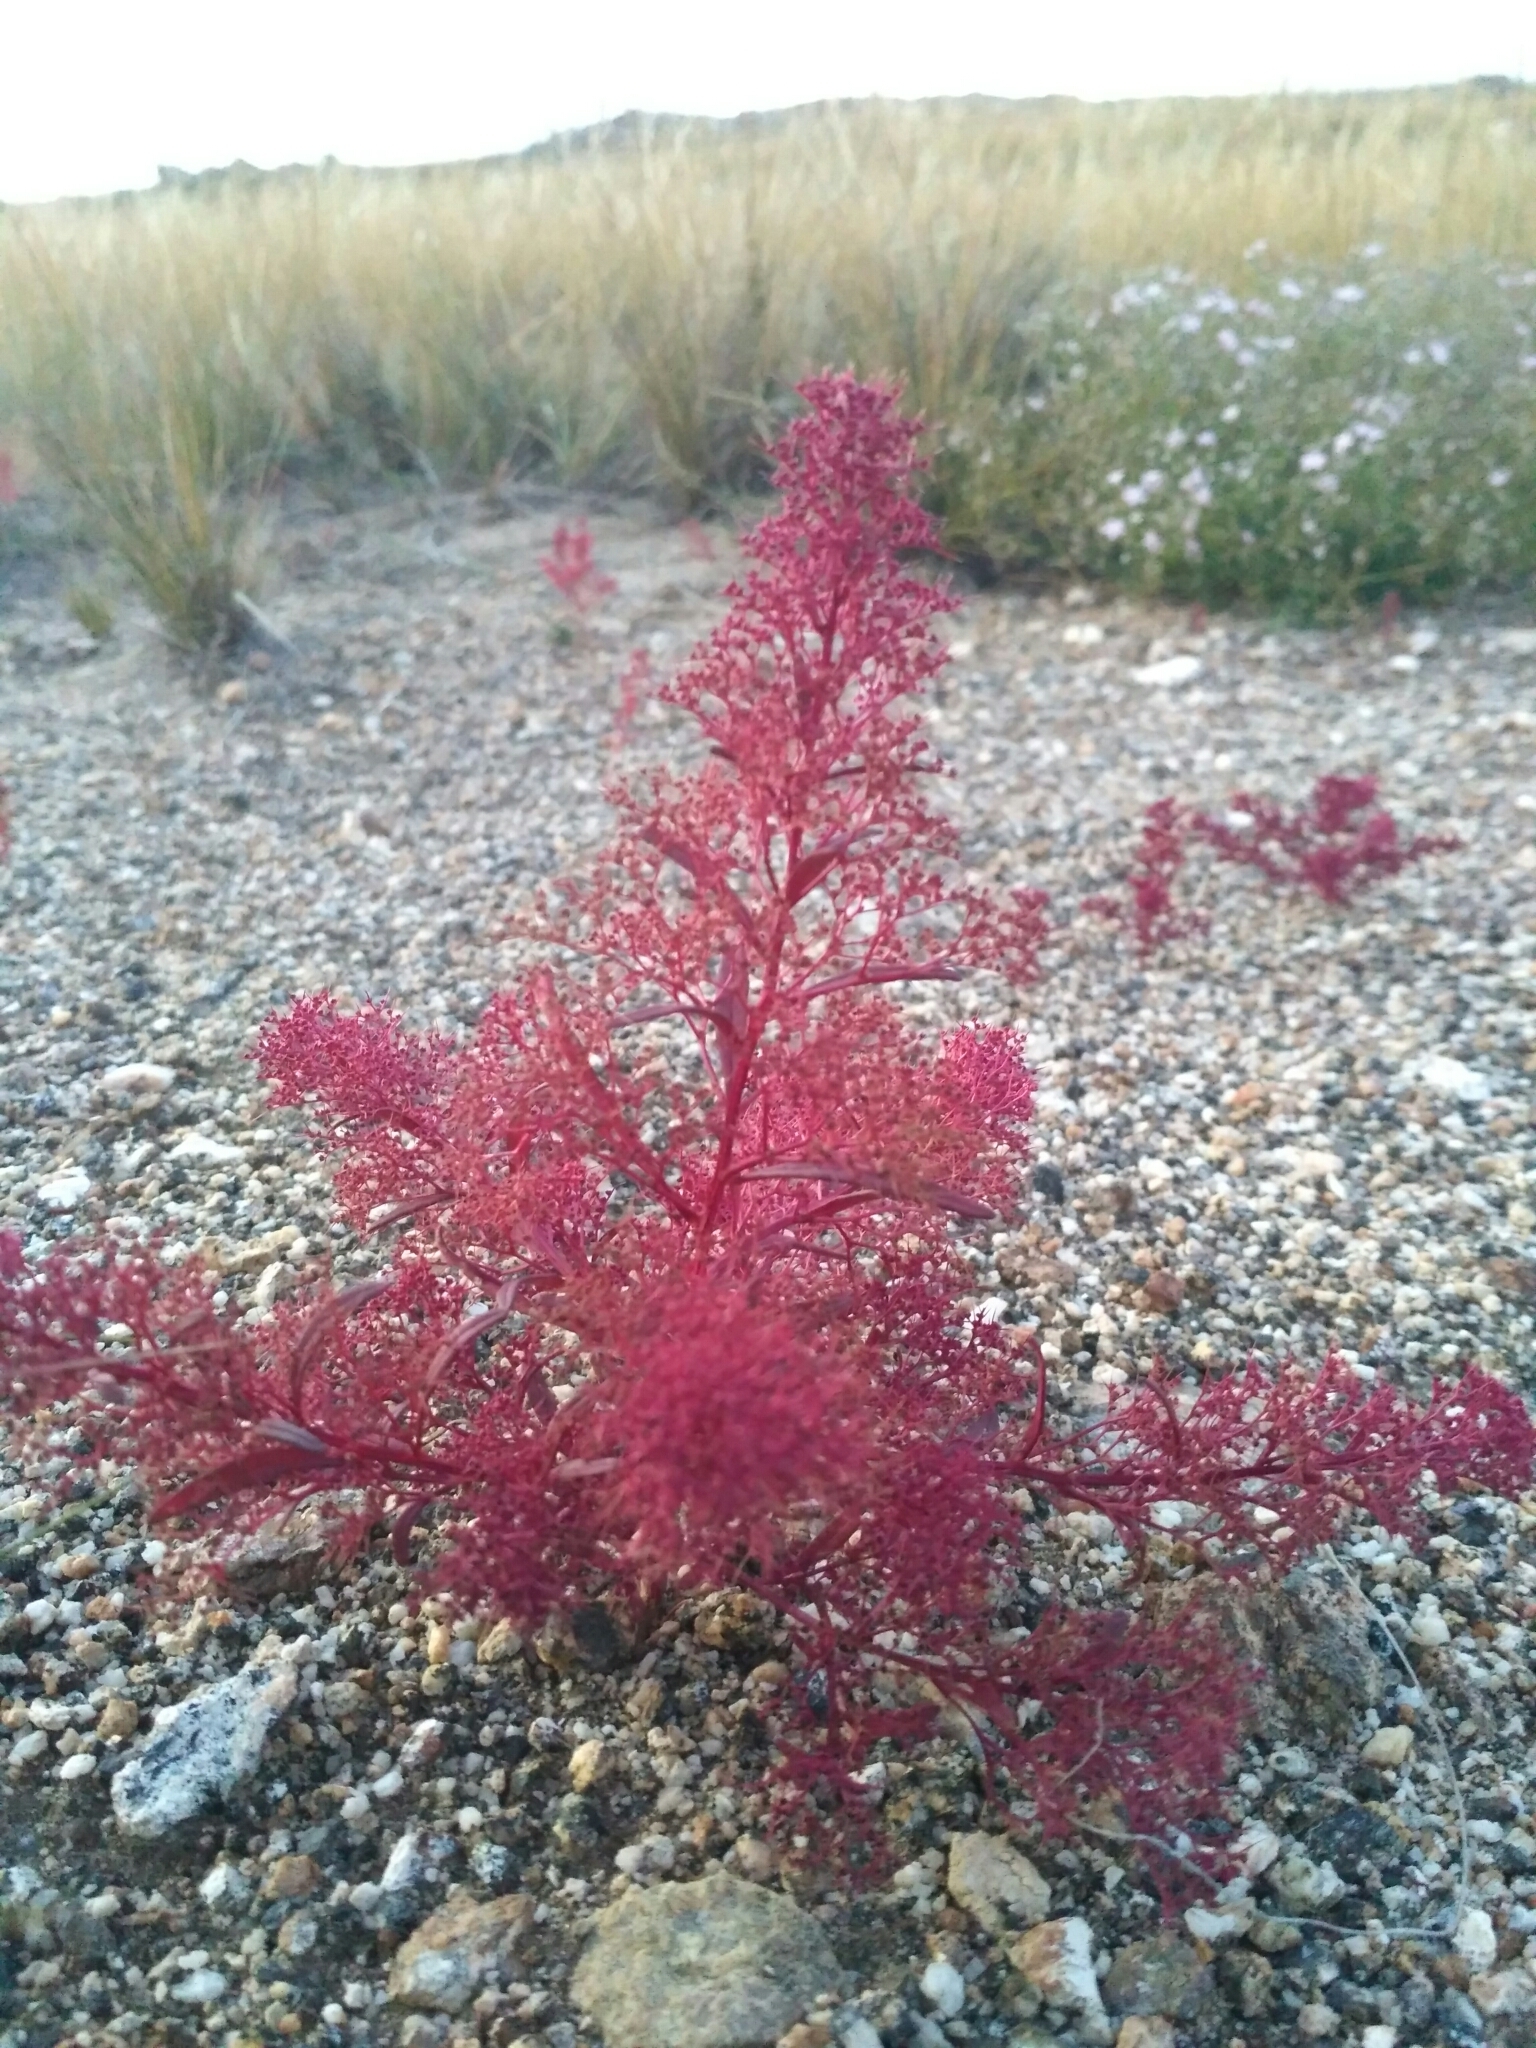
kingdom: Plantae
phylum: Tracheophyta
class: Magnoliopsida
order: Caryophyllales
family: Amaranthaceae
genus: Teloxys
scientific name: Teloxys aristata
